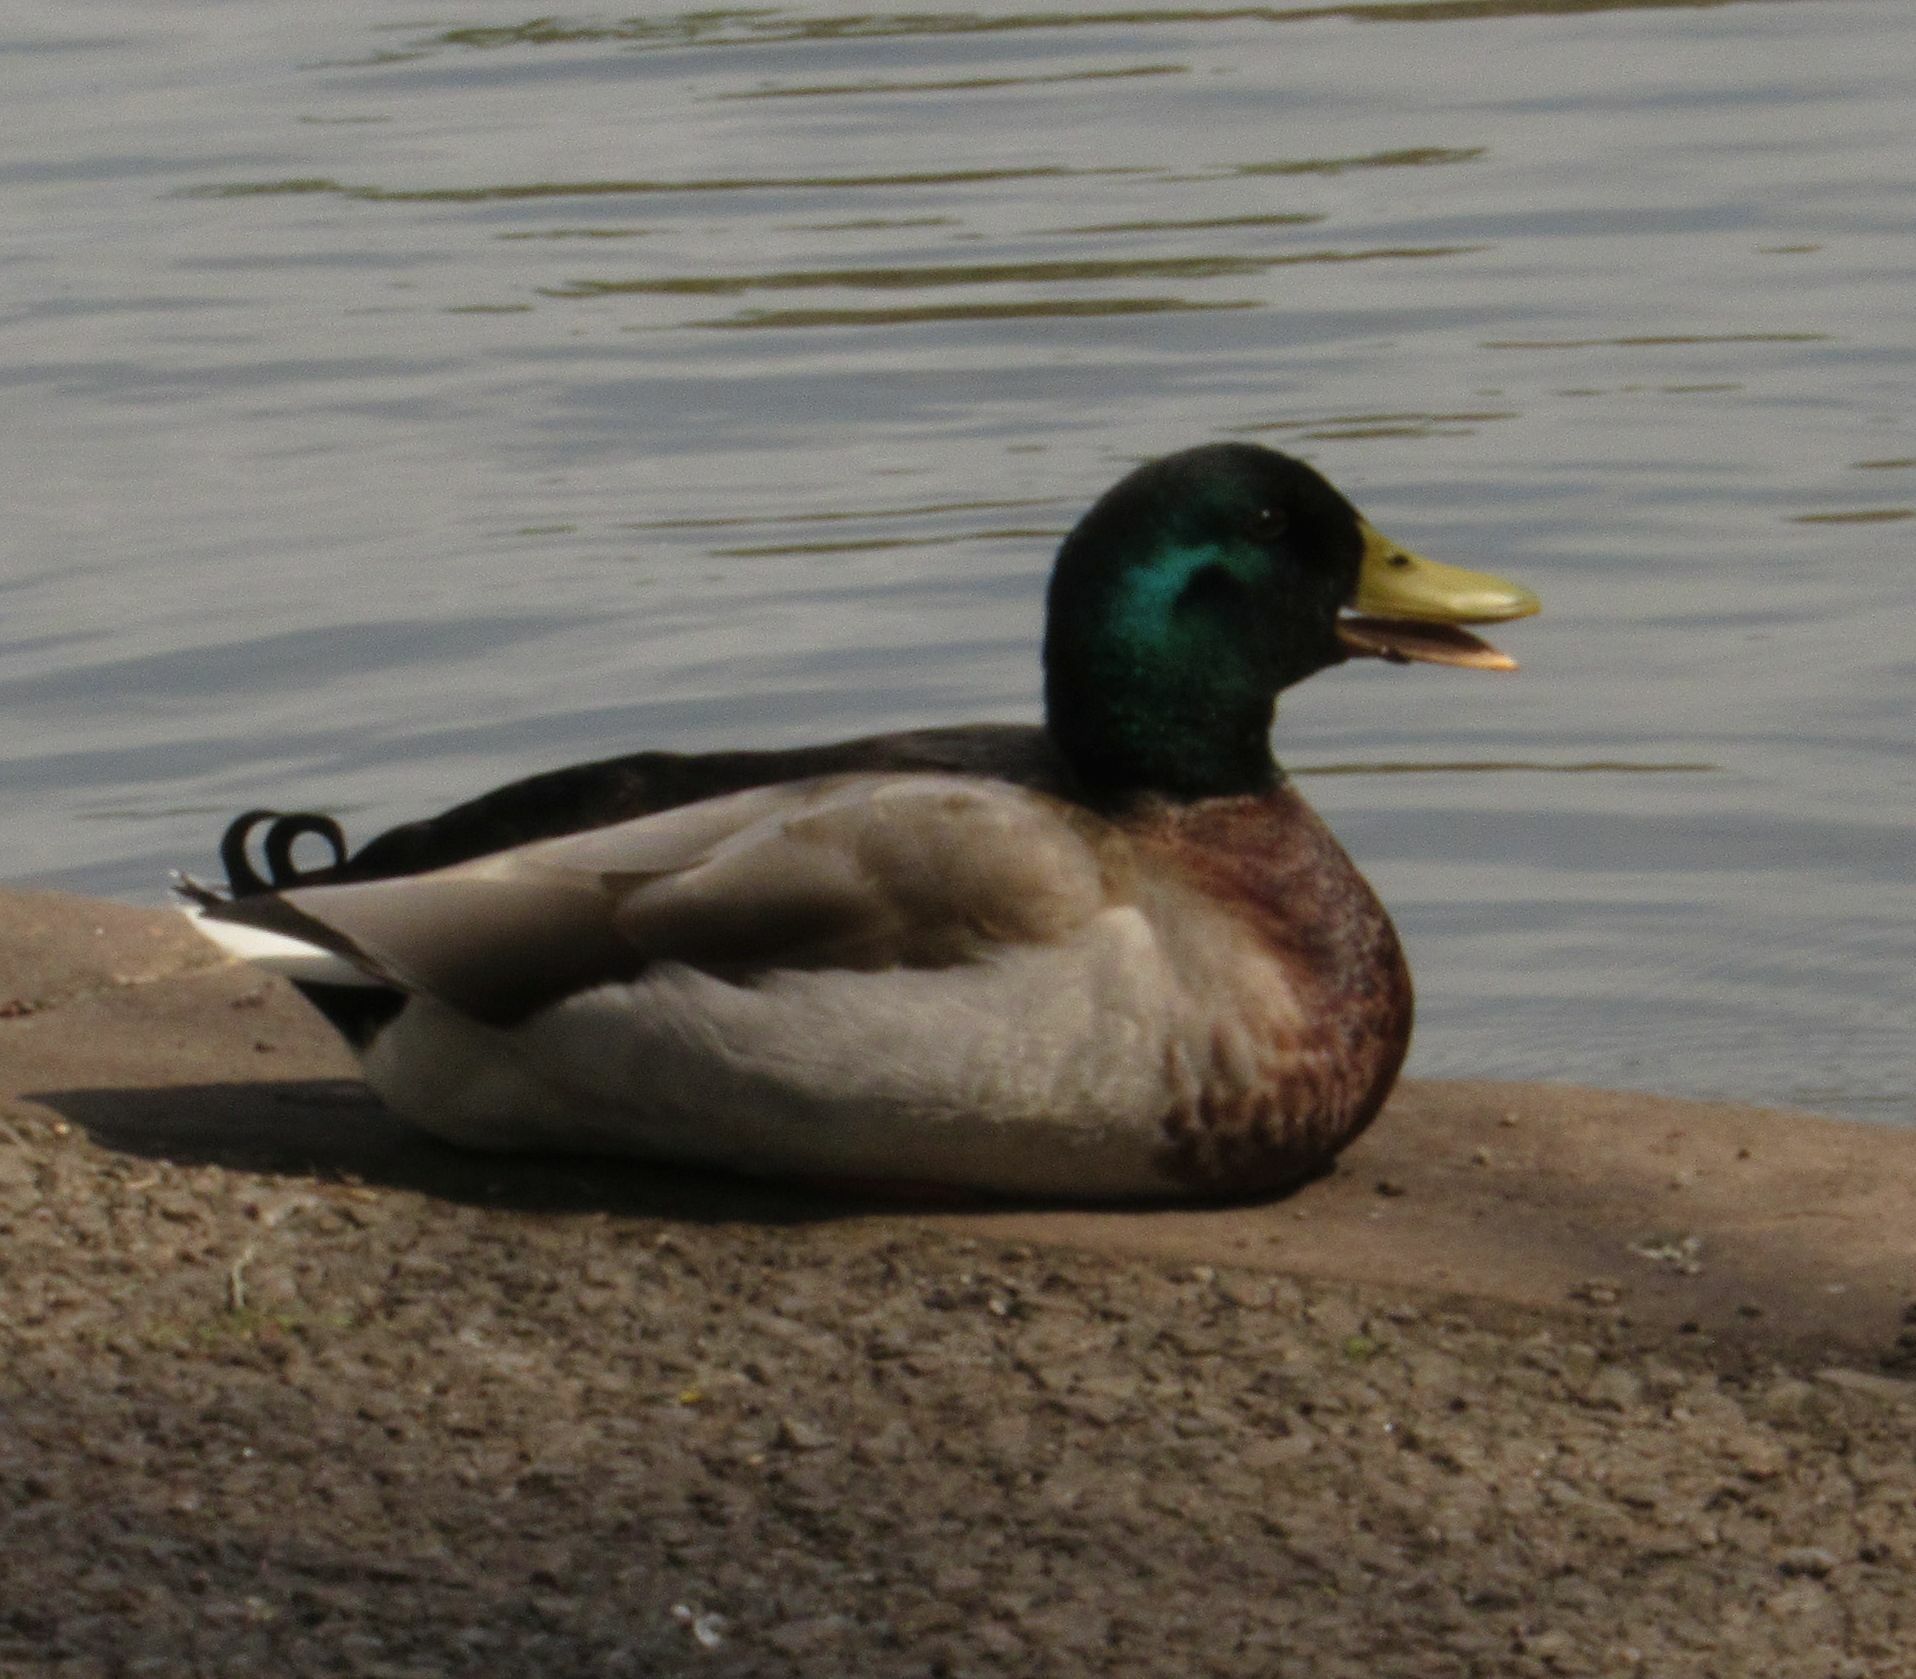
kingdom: Animalia
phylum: Chordata
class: Aves
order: Anseriformes
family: Anatidae
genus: Anas
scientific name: Anas platyrhynchos
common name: Mallard
